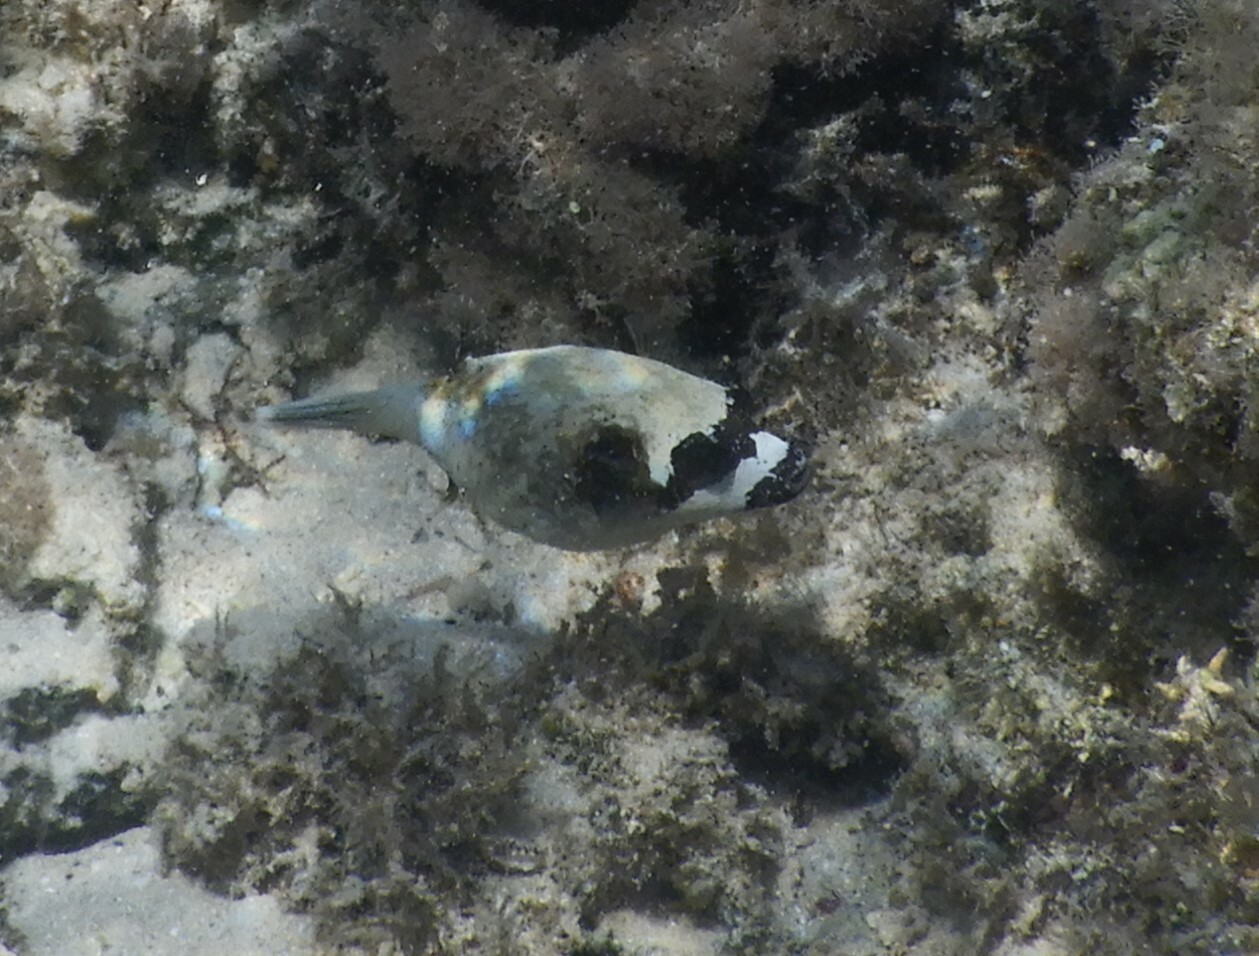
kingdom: Animalia
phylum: Chordata
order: Tetraodontiformes
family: Tetraodontidae
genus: Arothron
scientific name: Arothron diadematus
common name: Masked puffer
